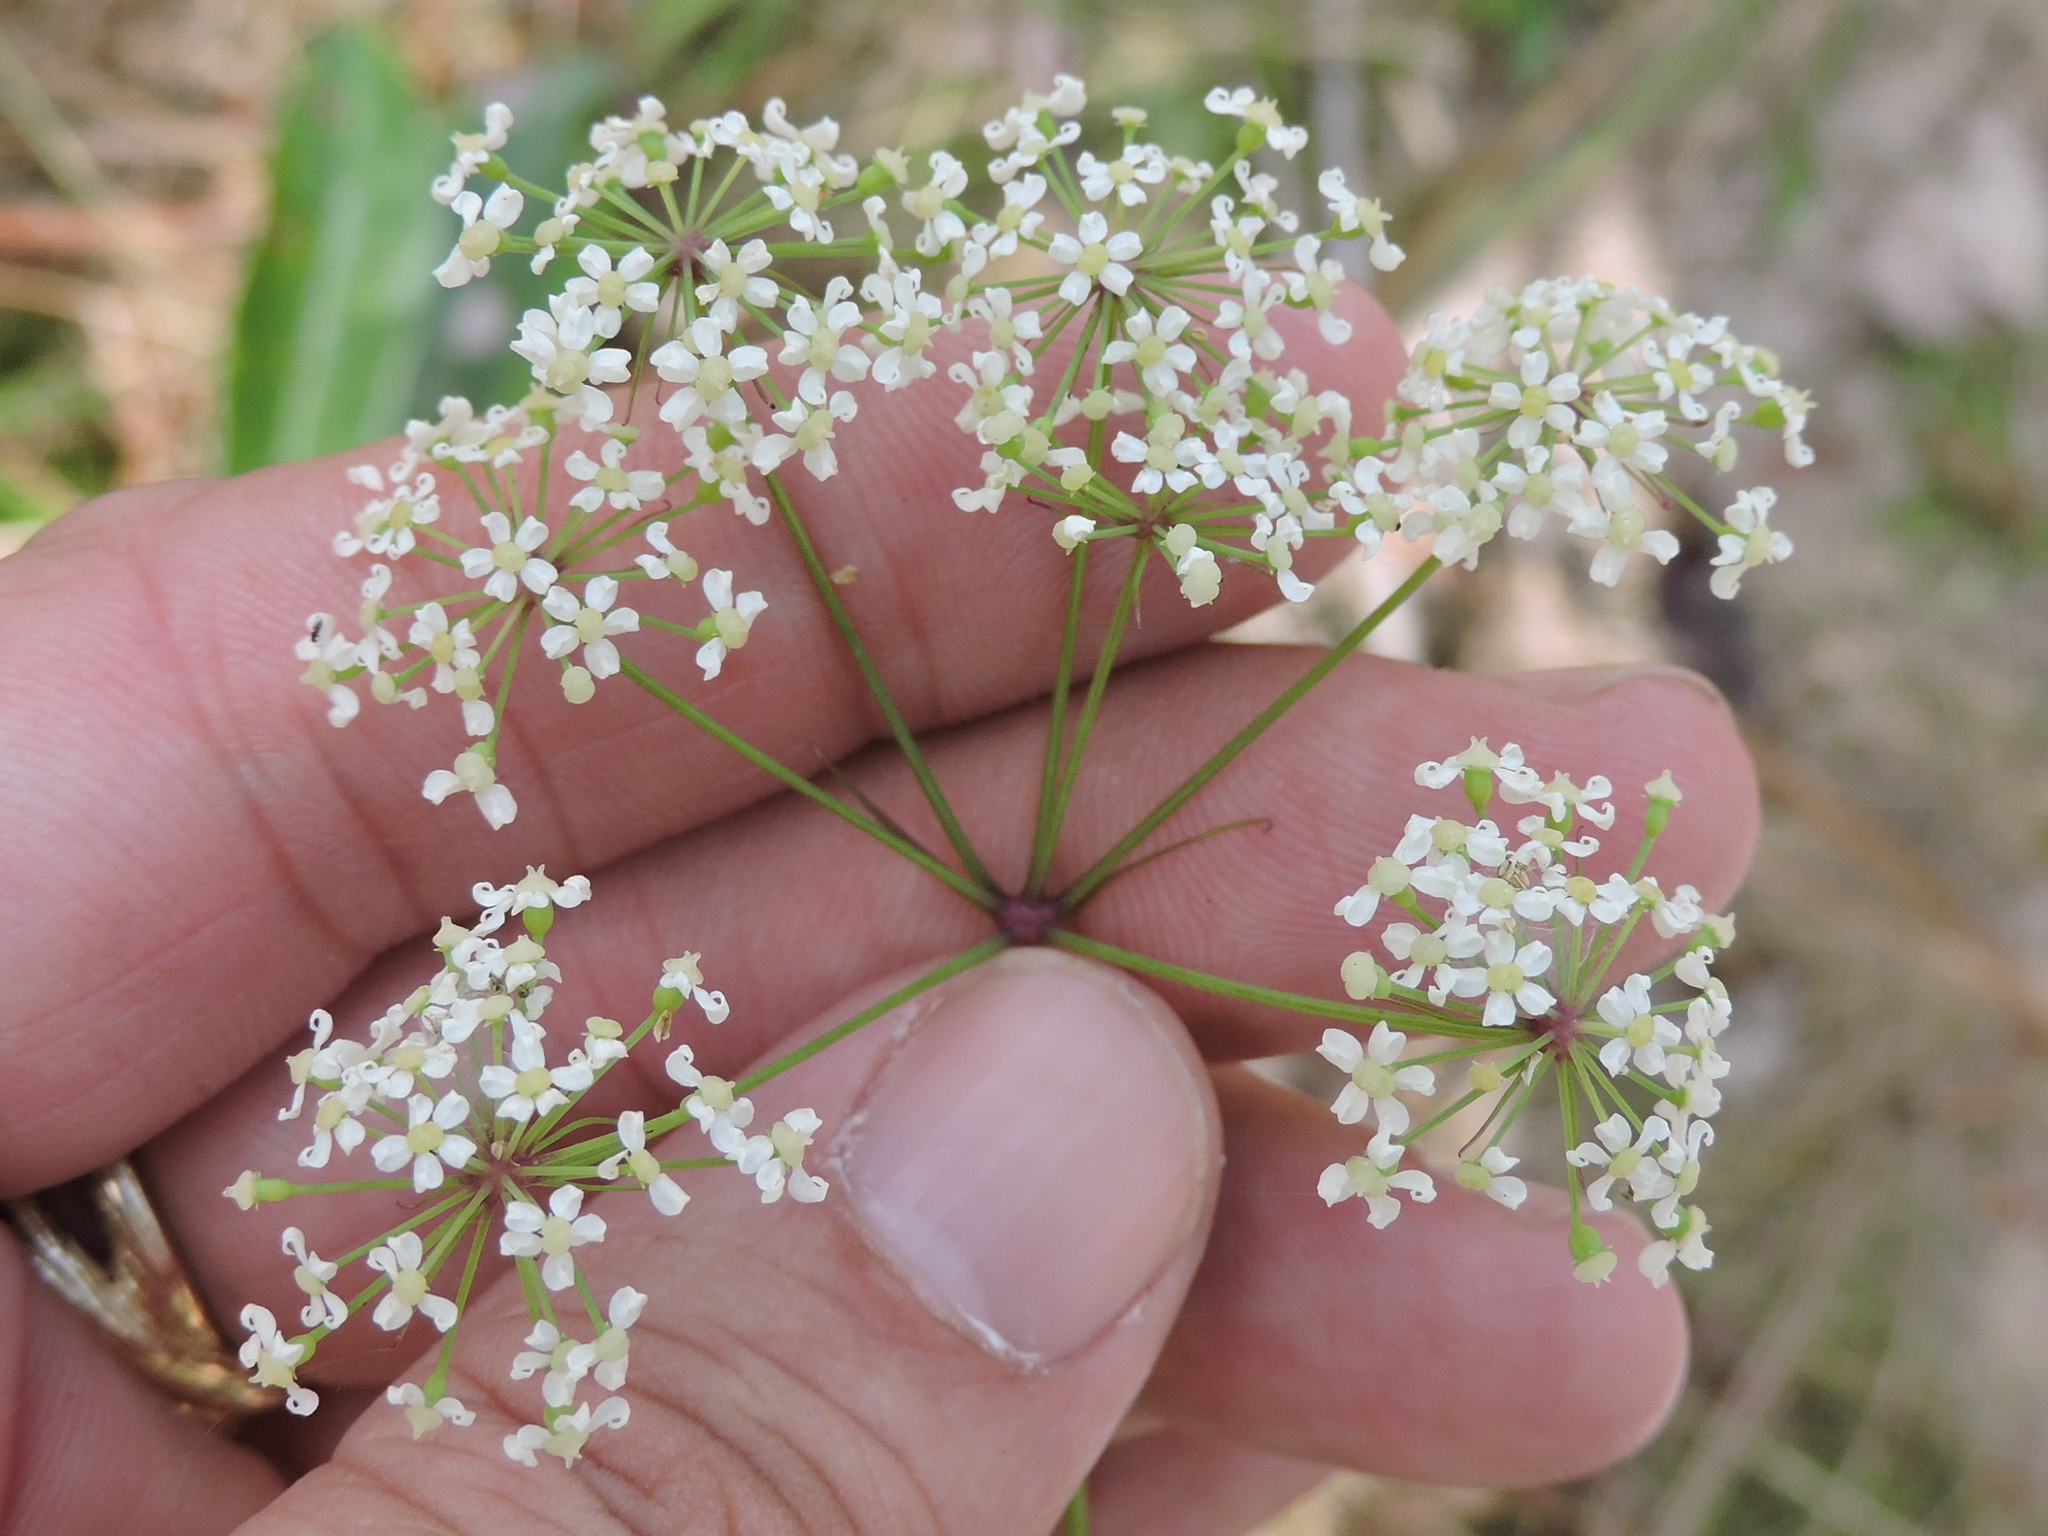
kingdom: Plantae
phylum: Tracheophyta
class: Magnoliopsida
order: Apiales
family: Apiaceae
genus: Oxypolis
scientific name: Oxypolis rigidior
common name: Cowbane
